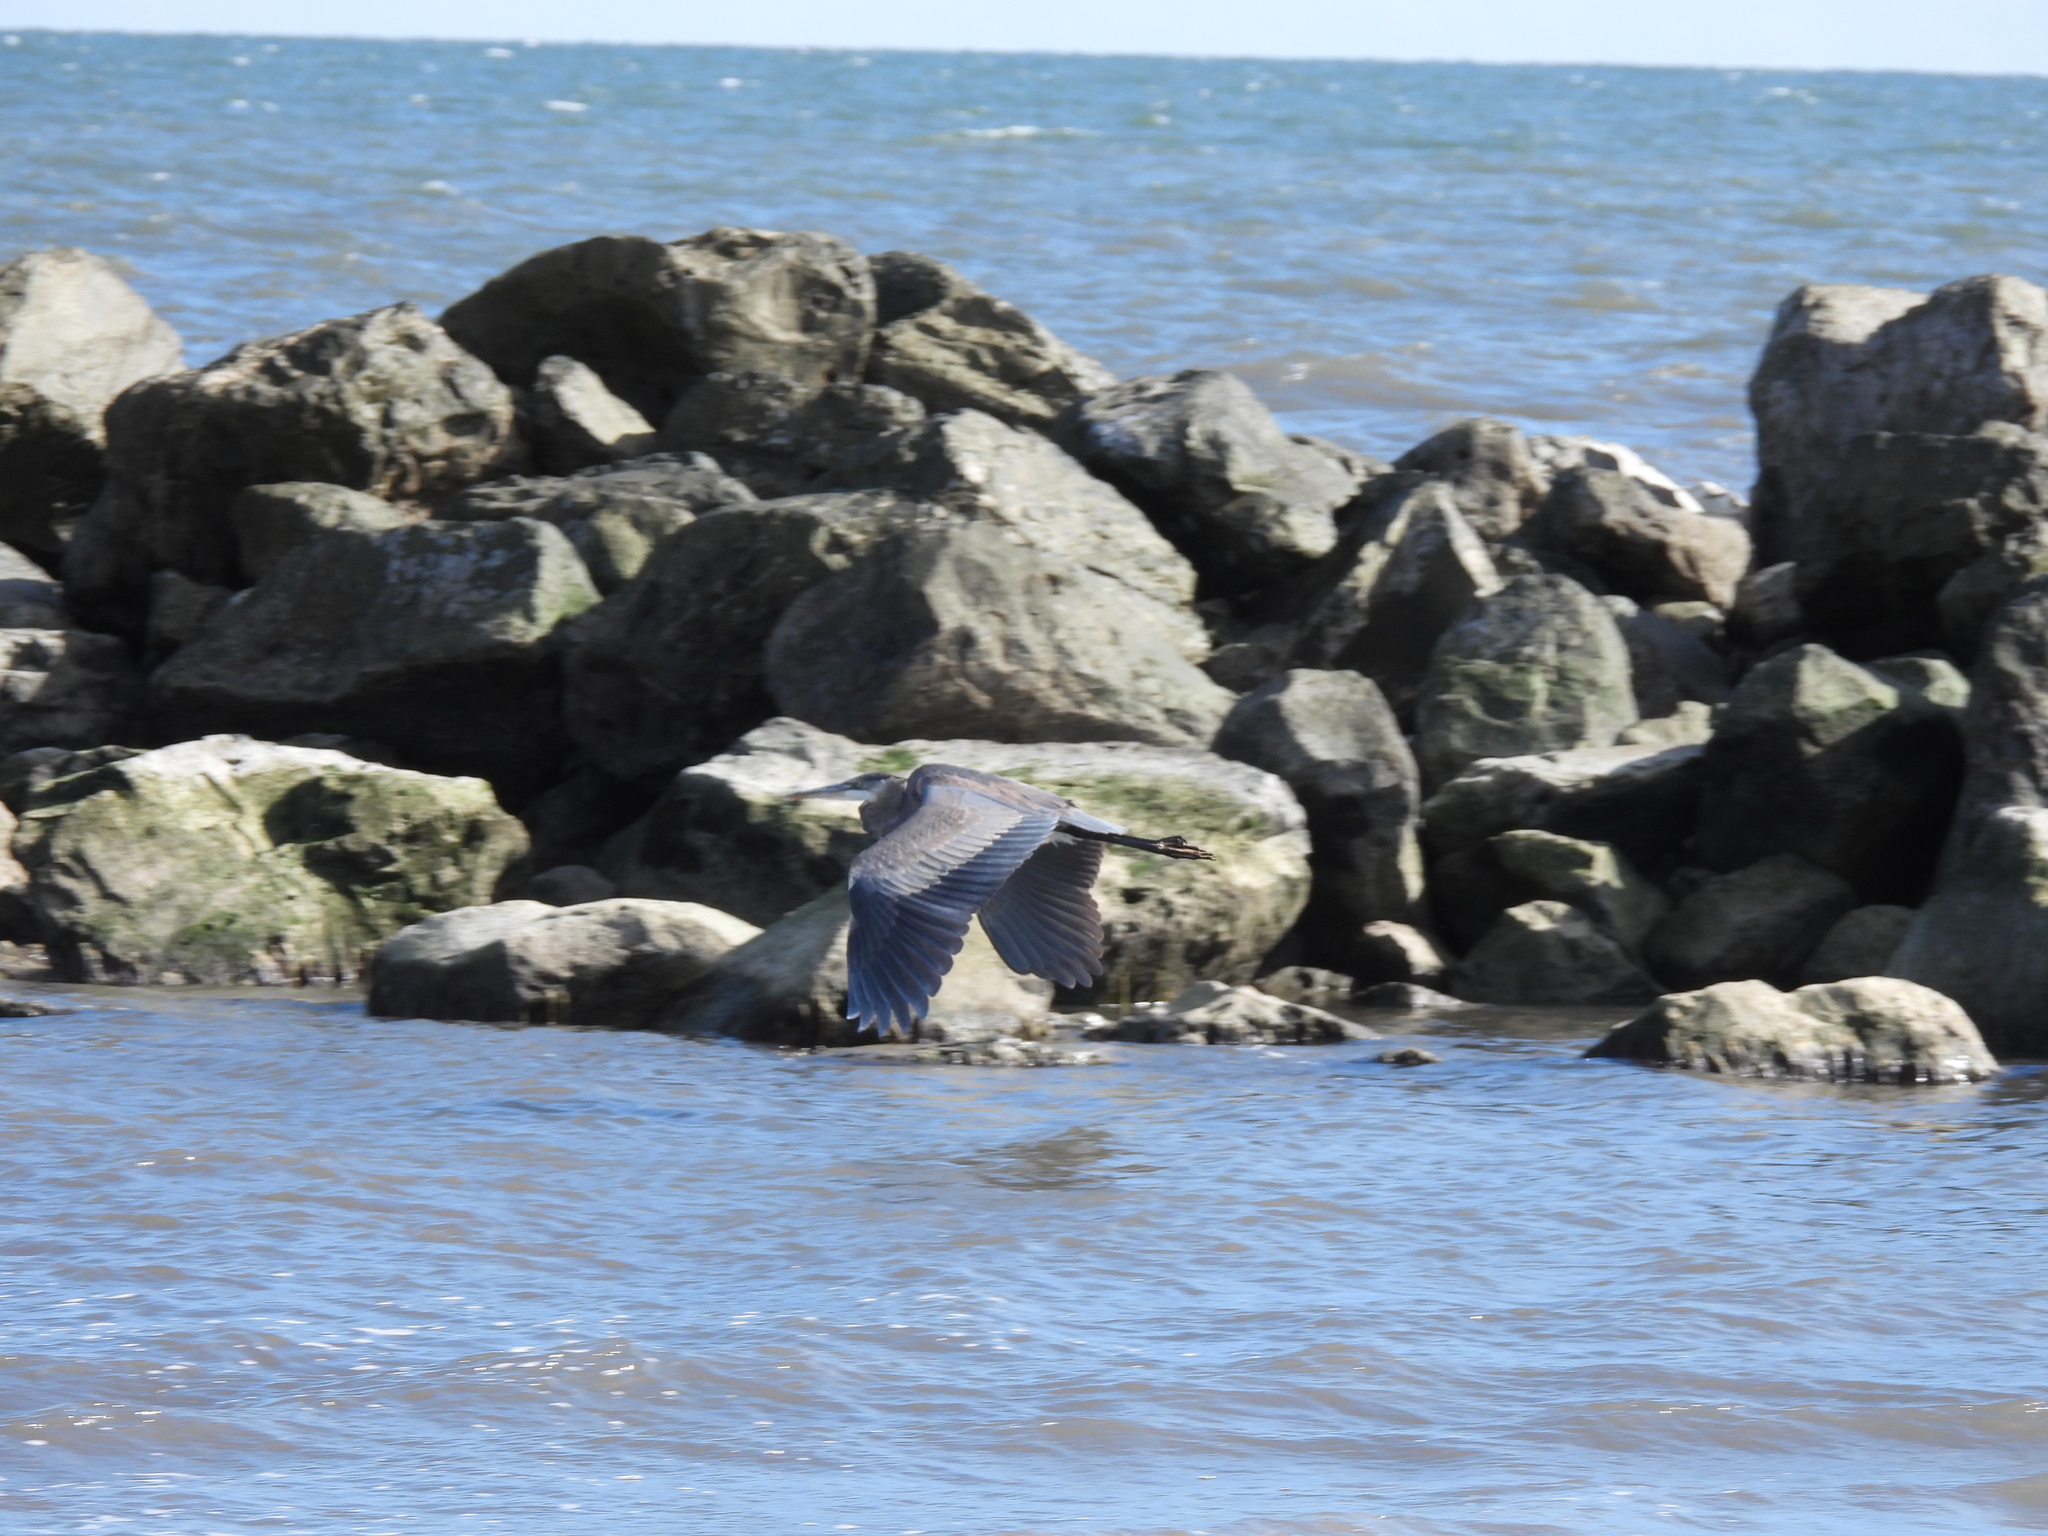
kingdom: Animalia
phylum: Chordata
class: Aves
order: Pelecaniformes
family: Ardeidae
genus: Ardea
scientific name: Ardea herodias
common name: Great blue heron
